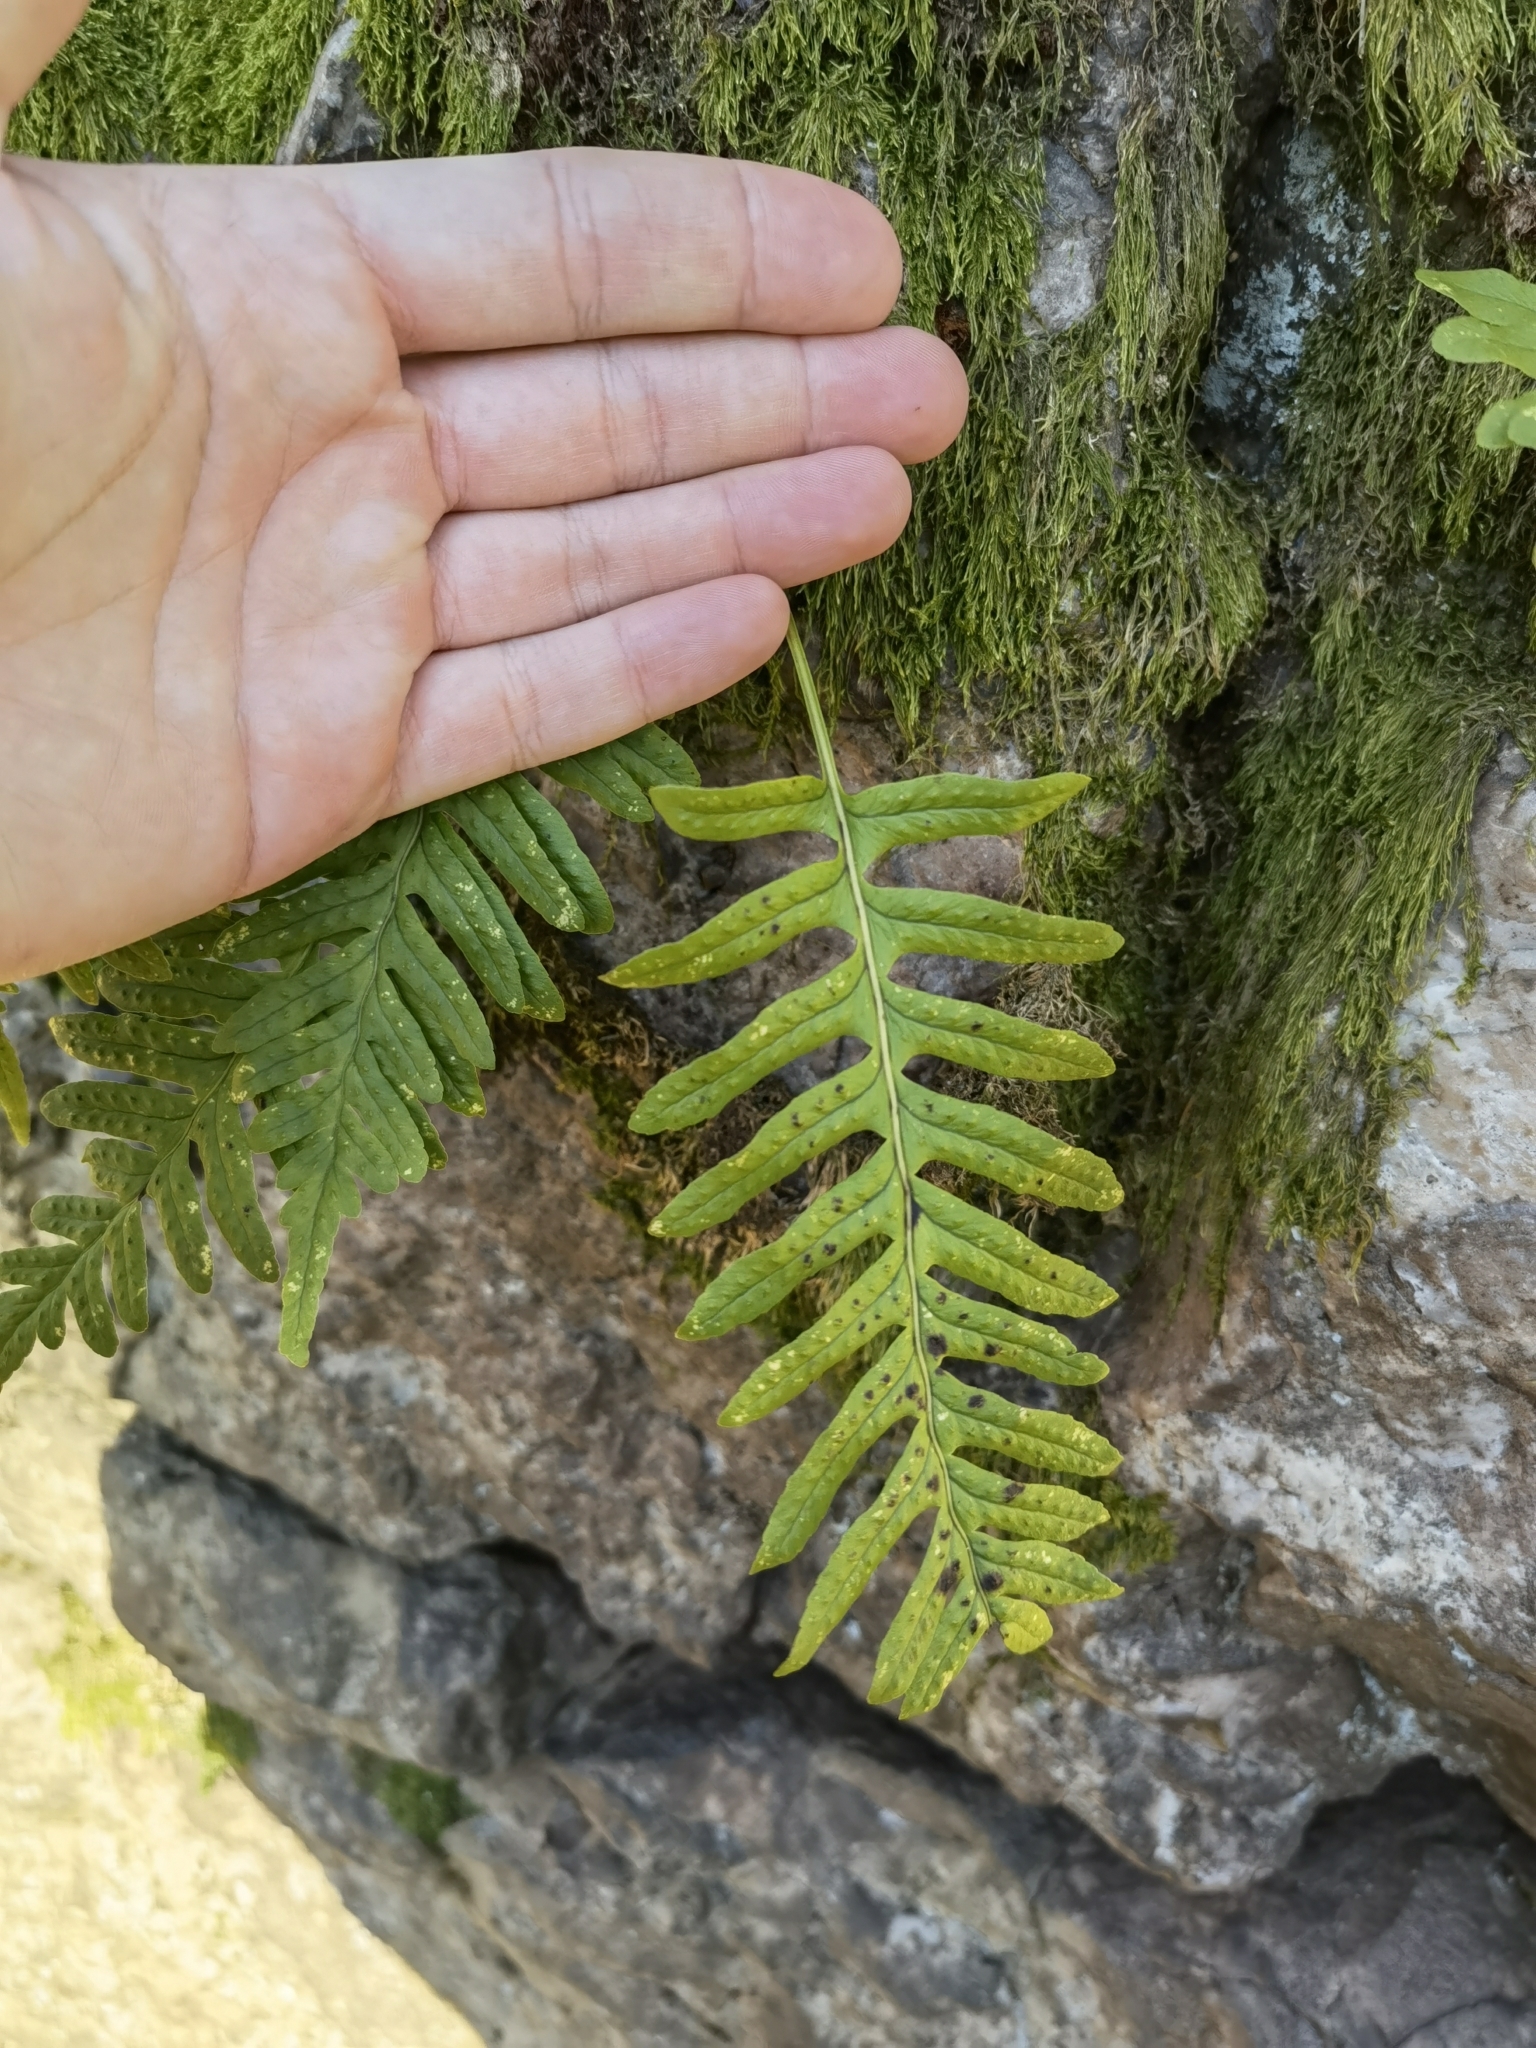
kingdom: Plantae
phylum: Tracheophyta
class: Polypodiopsida
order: Polypodiales
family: Polypodiaceae
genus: Polypodium
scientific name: Polypodium vulgare
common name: Common polypody
